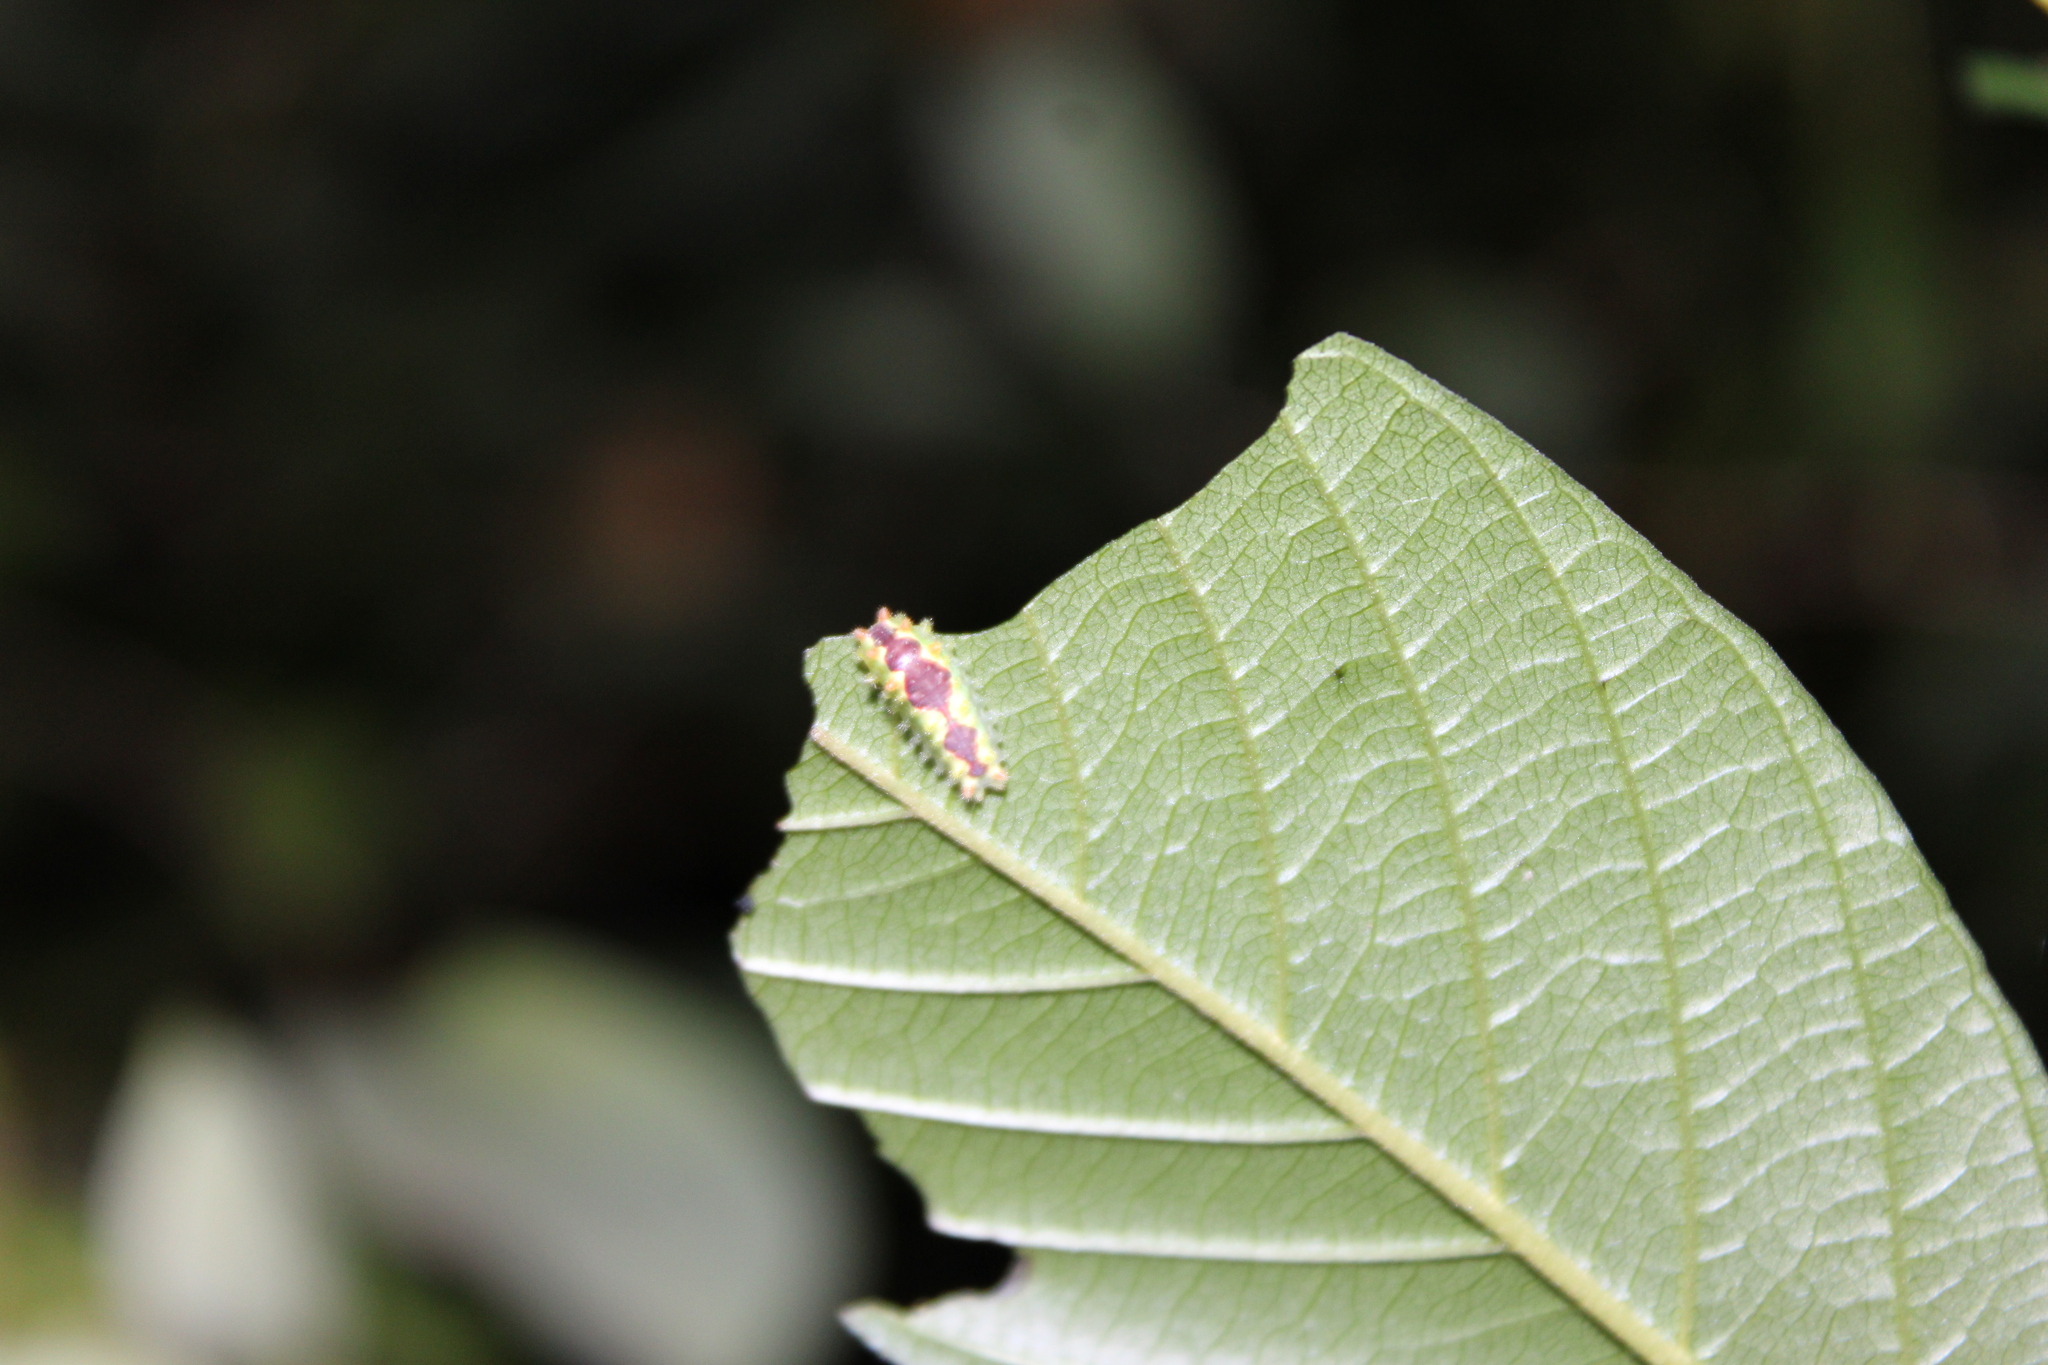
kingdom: Animalia
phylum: Arthropoda
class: Insecta
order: Lepidoptera
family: Limacodidae
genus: Adoneta
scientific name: Adoneta spinuloides
